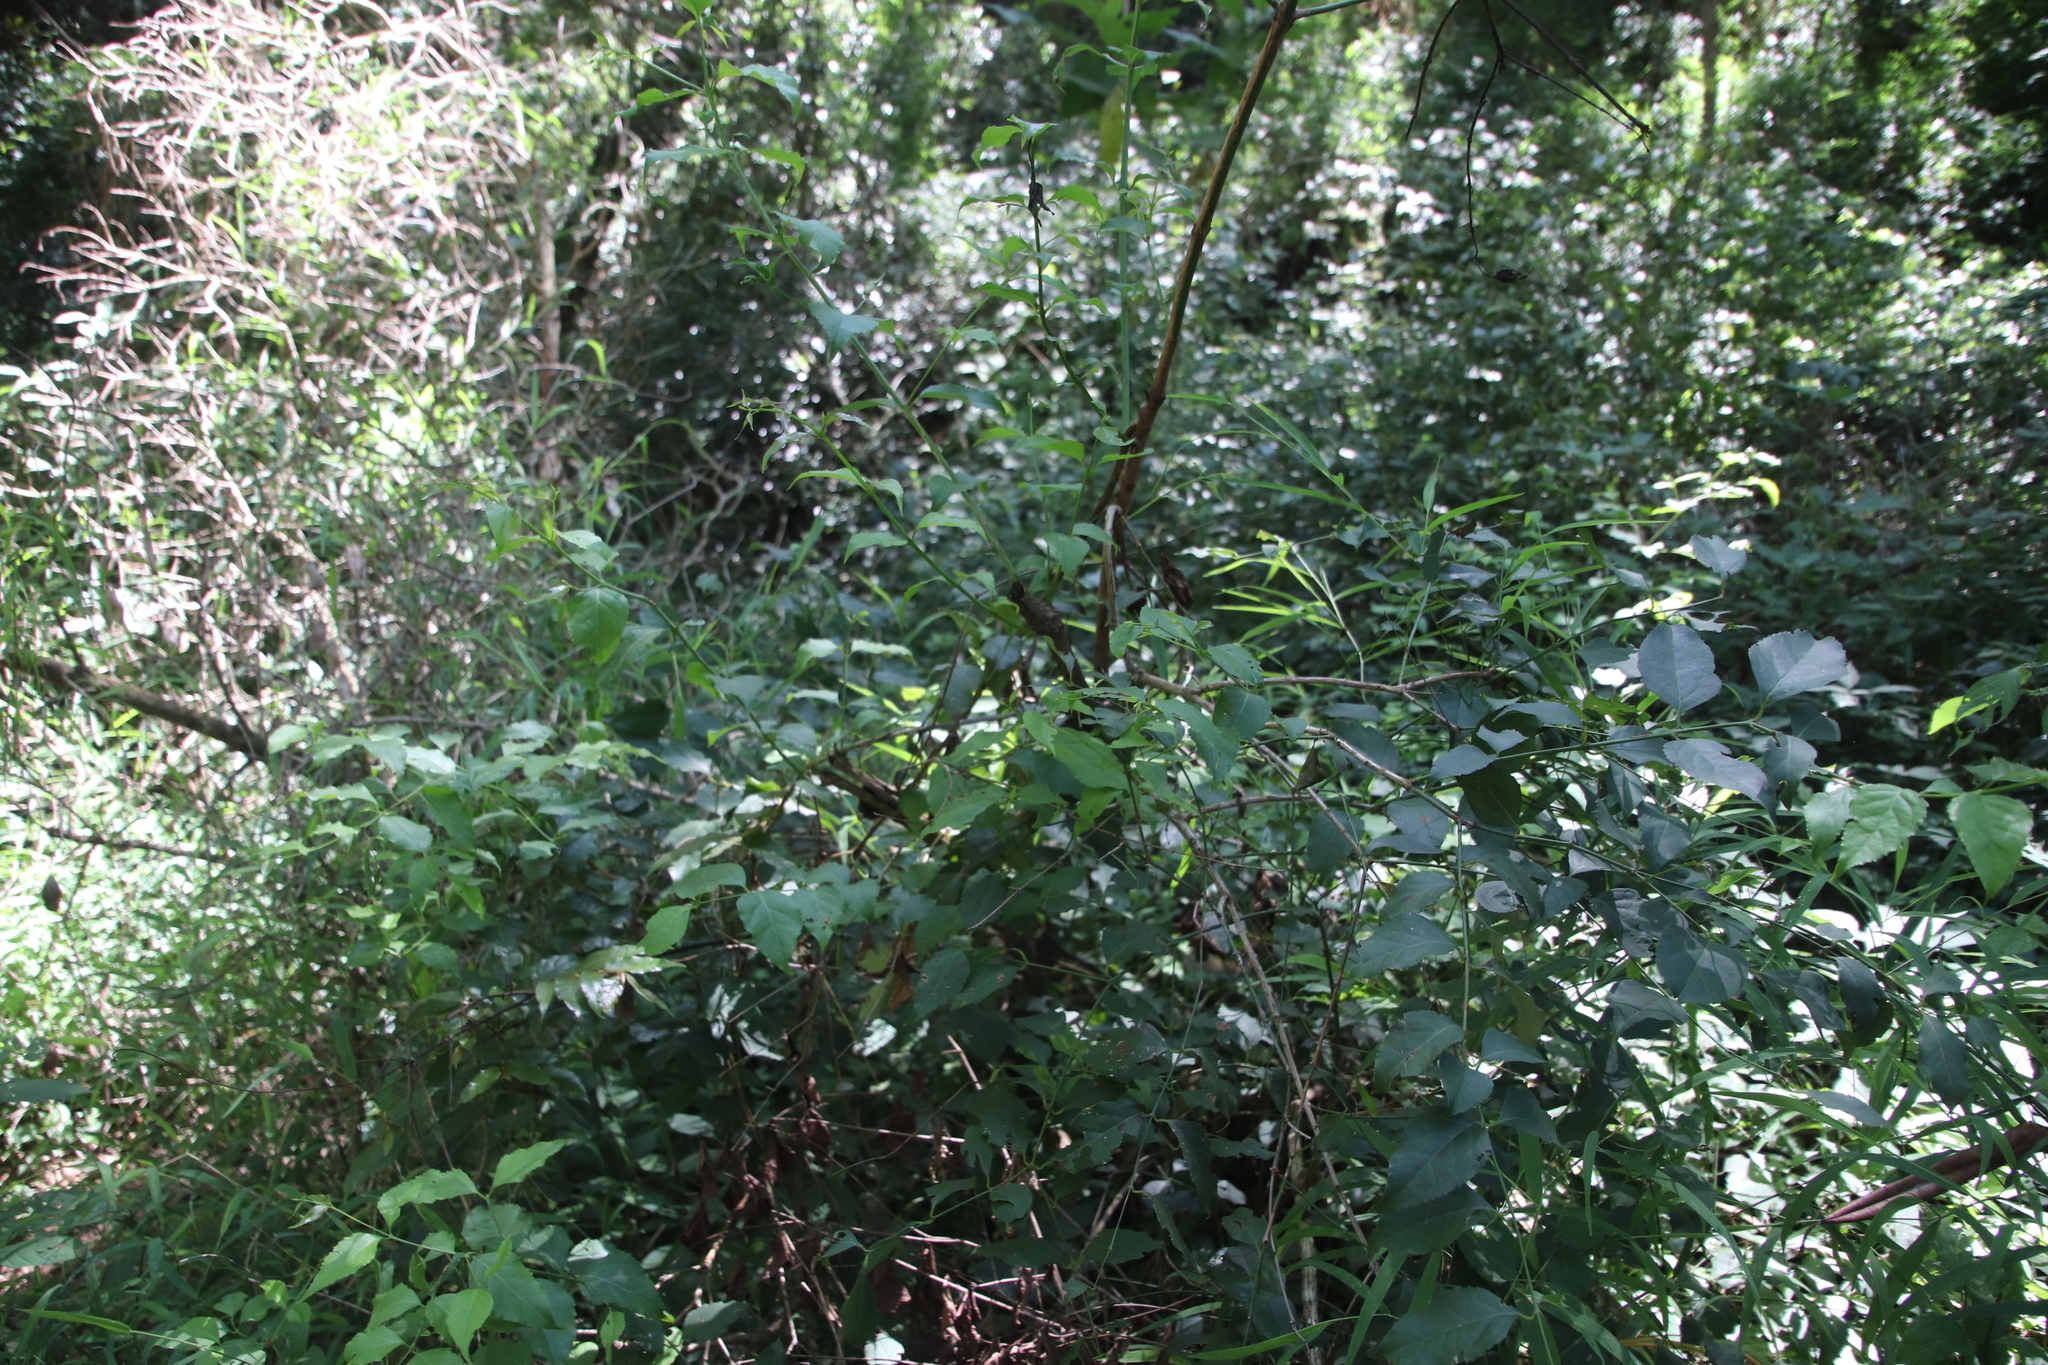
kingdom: Plantae
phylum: Tracheophyta
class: Magnoliopsida
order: Lamiales
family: Stilbaceae
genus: Halleria
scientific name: Halleria lucida
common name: Tree fuschia
